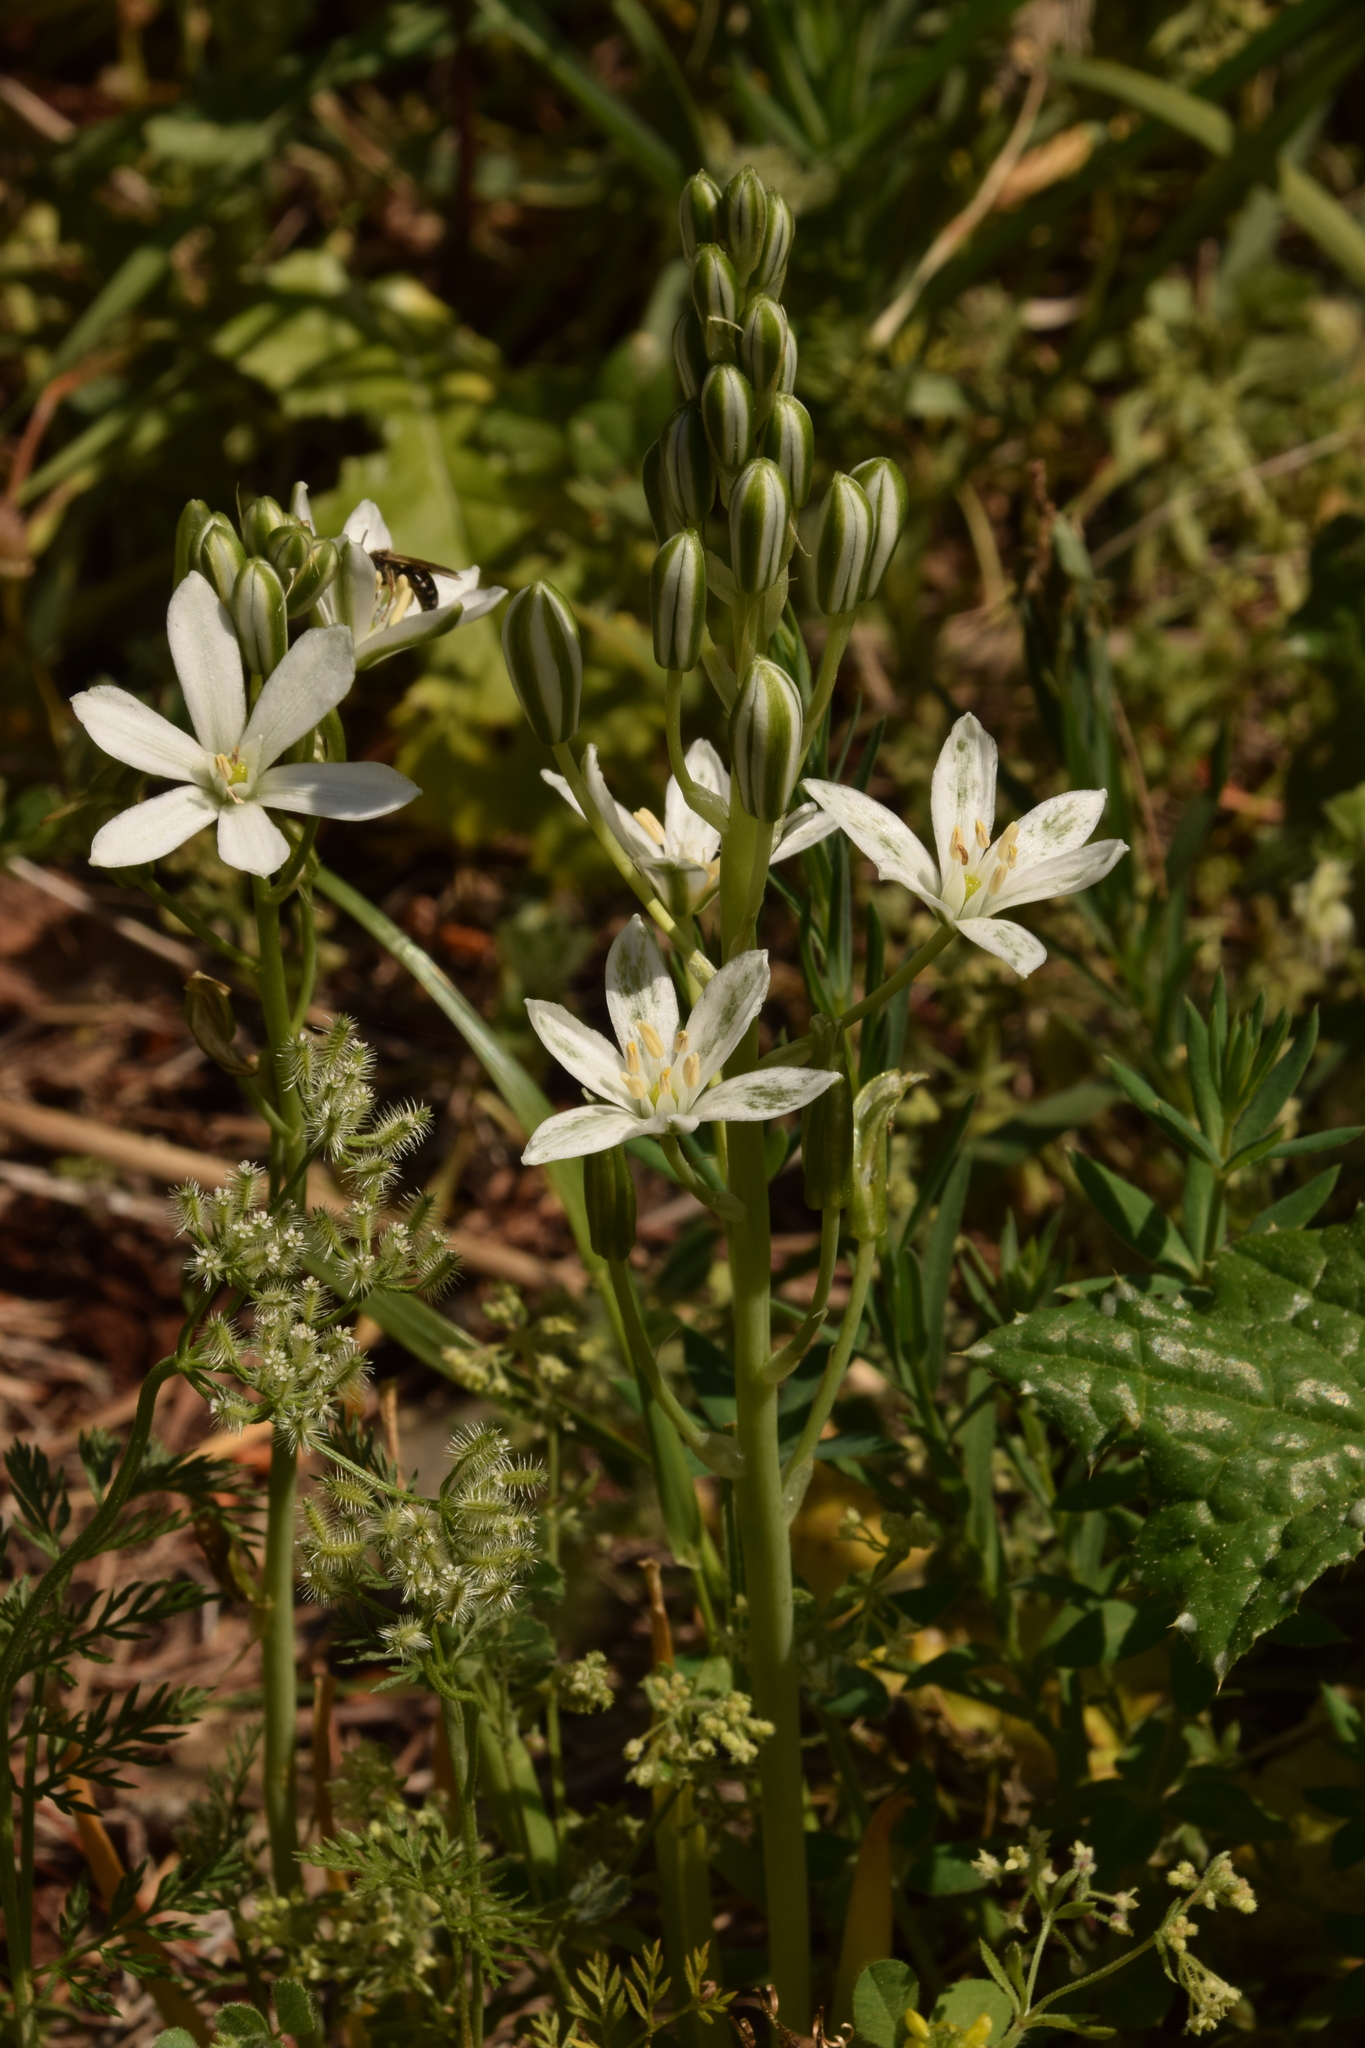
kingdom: Plantae
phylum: Tracheophyta
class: Liliopsida
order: Asparagales
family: Asparagaceae
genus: Ornithogalum
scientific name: Ornithogalum narbonense
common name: Bath-asparagus
